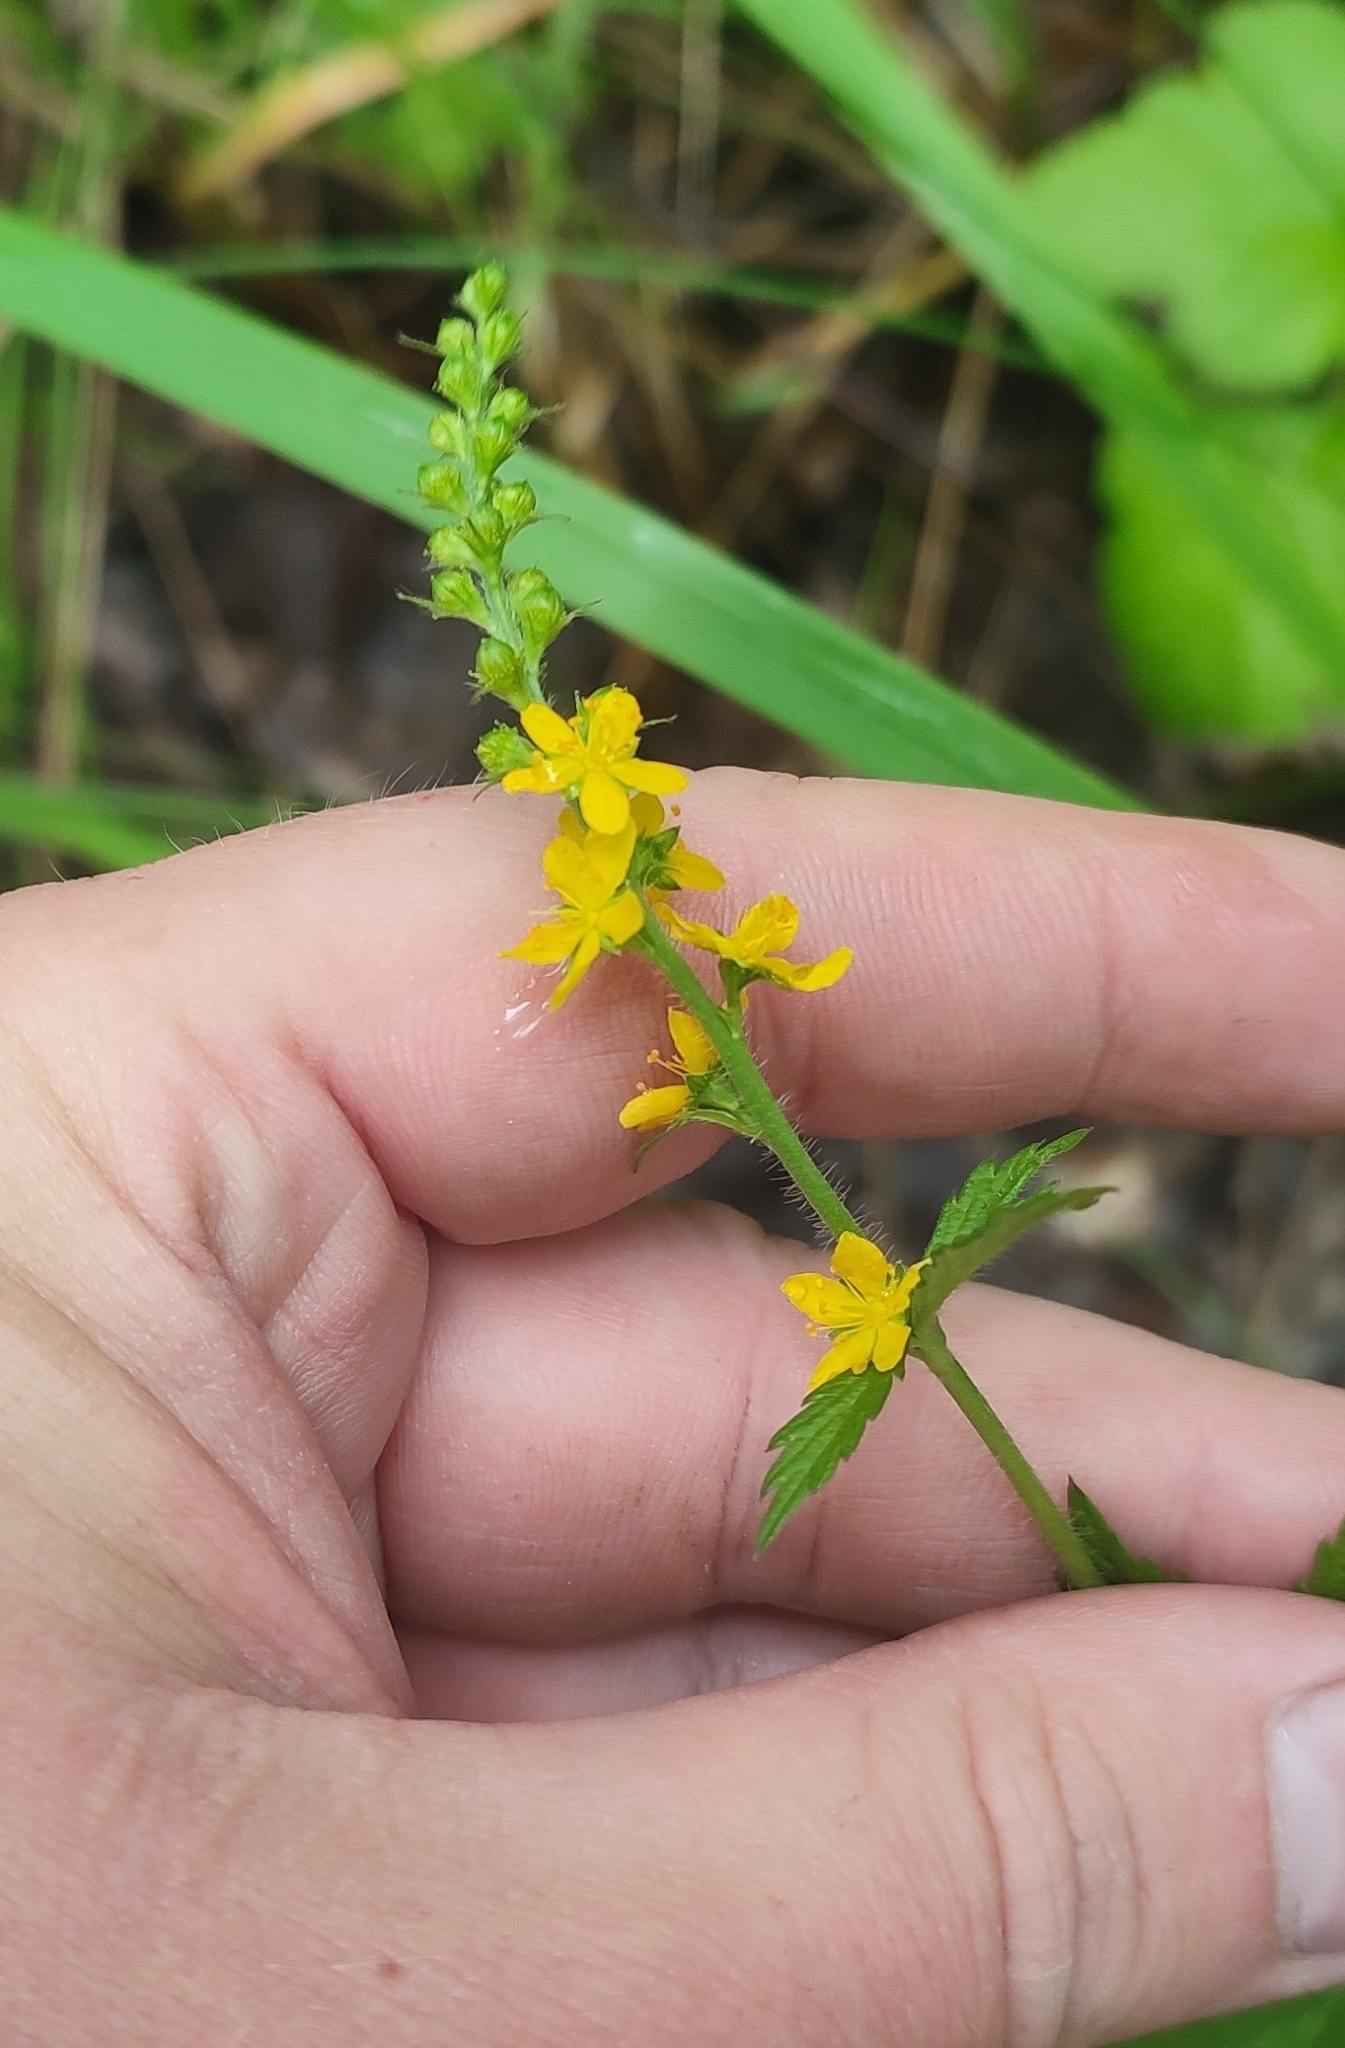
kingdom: Plantae
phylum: Tracheophyta
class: Magnoliopsida
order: Rosales
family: Rosaceae
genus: Agrimonia
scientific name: Agrimonia pilosa
